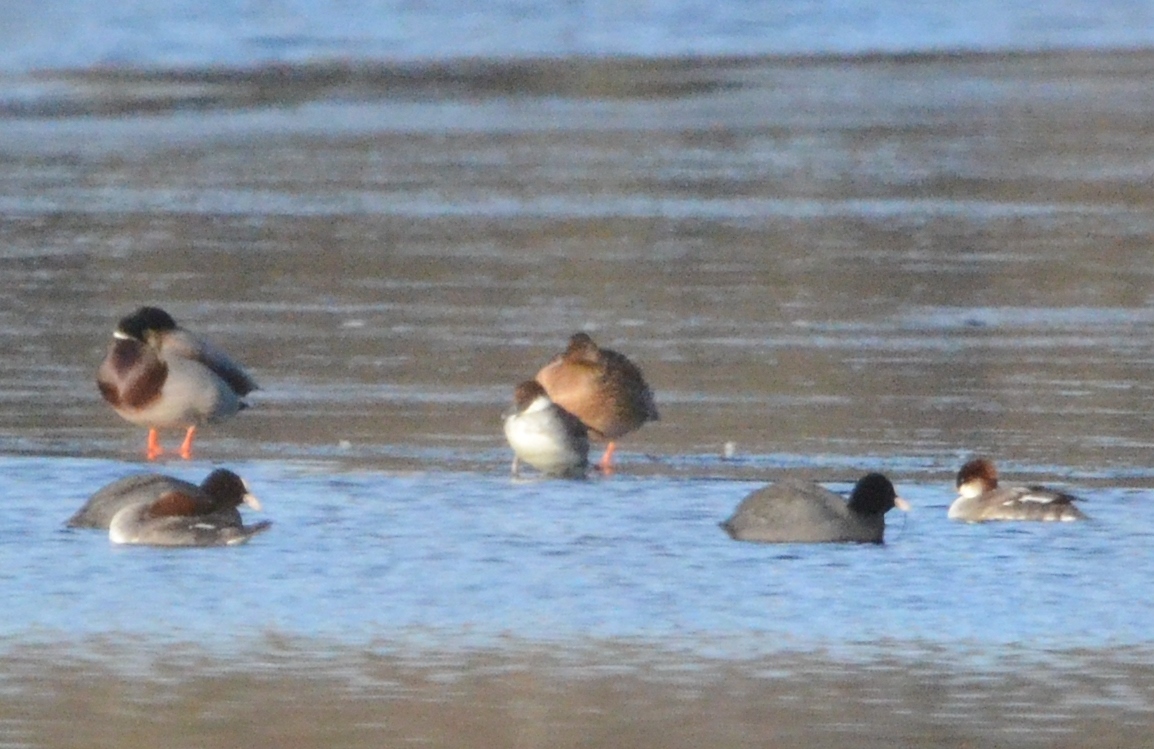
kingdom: Animalia
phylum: Chordata
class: Aves
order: Anseriformes
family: Anatidae
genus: Mergellus
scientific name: Mergellus albellus
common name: Smew
